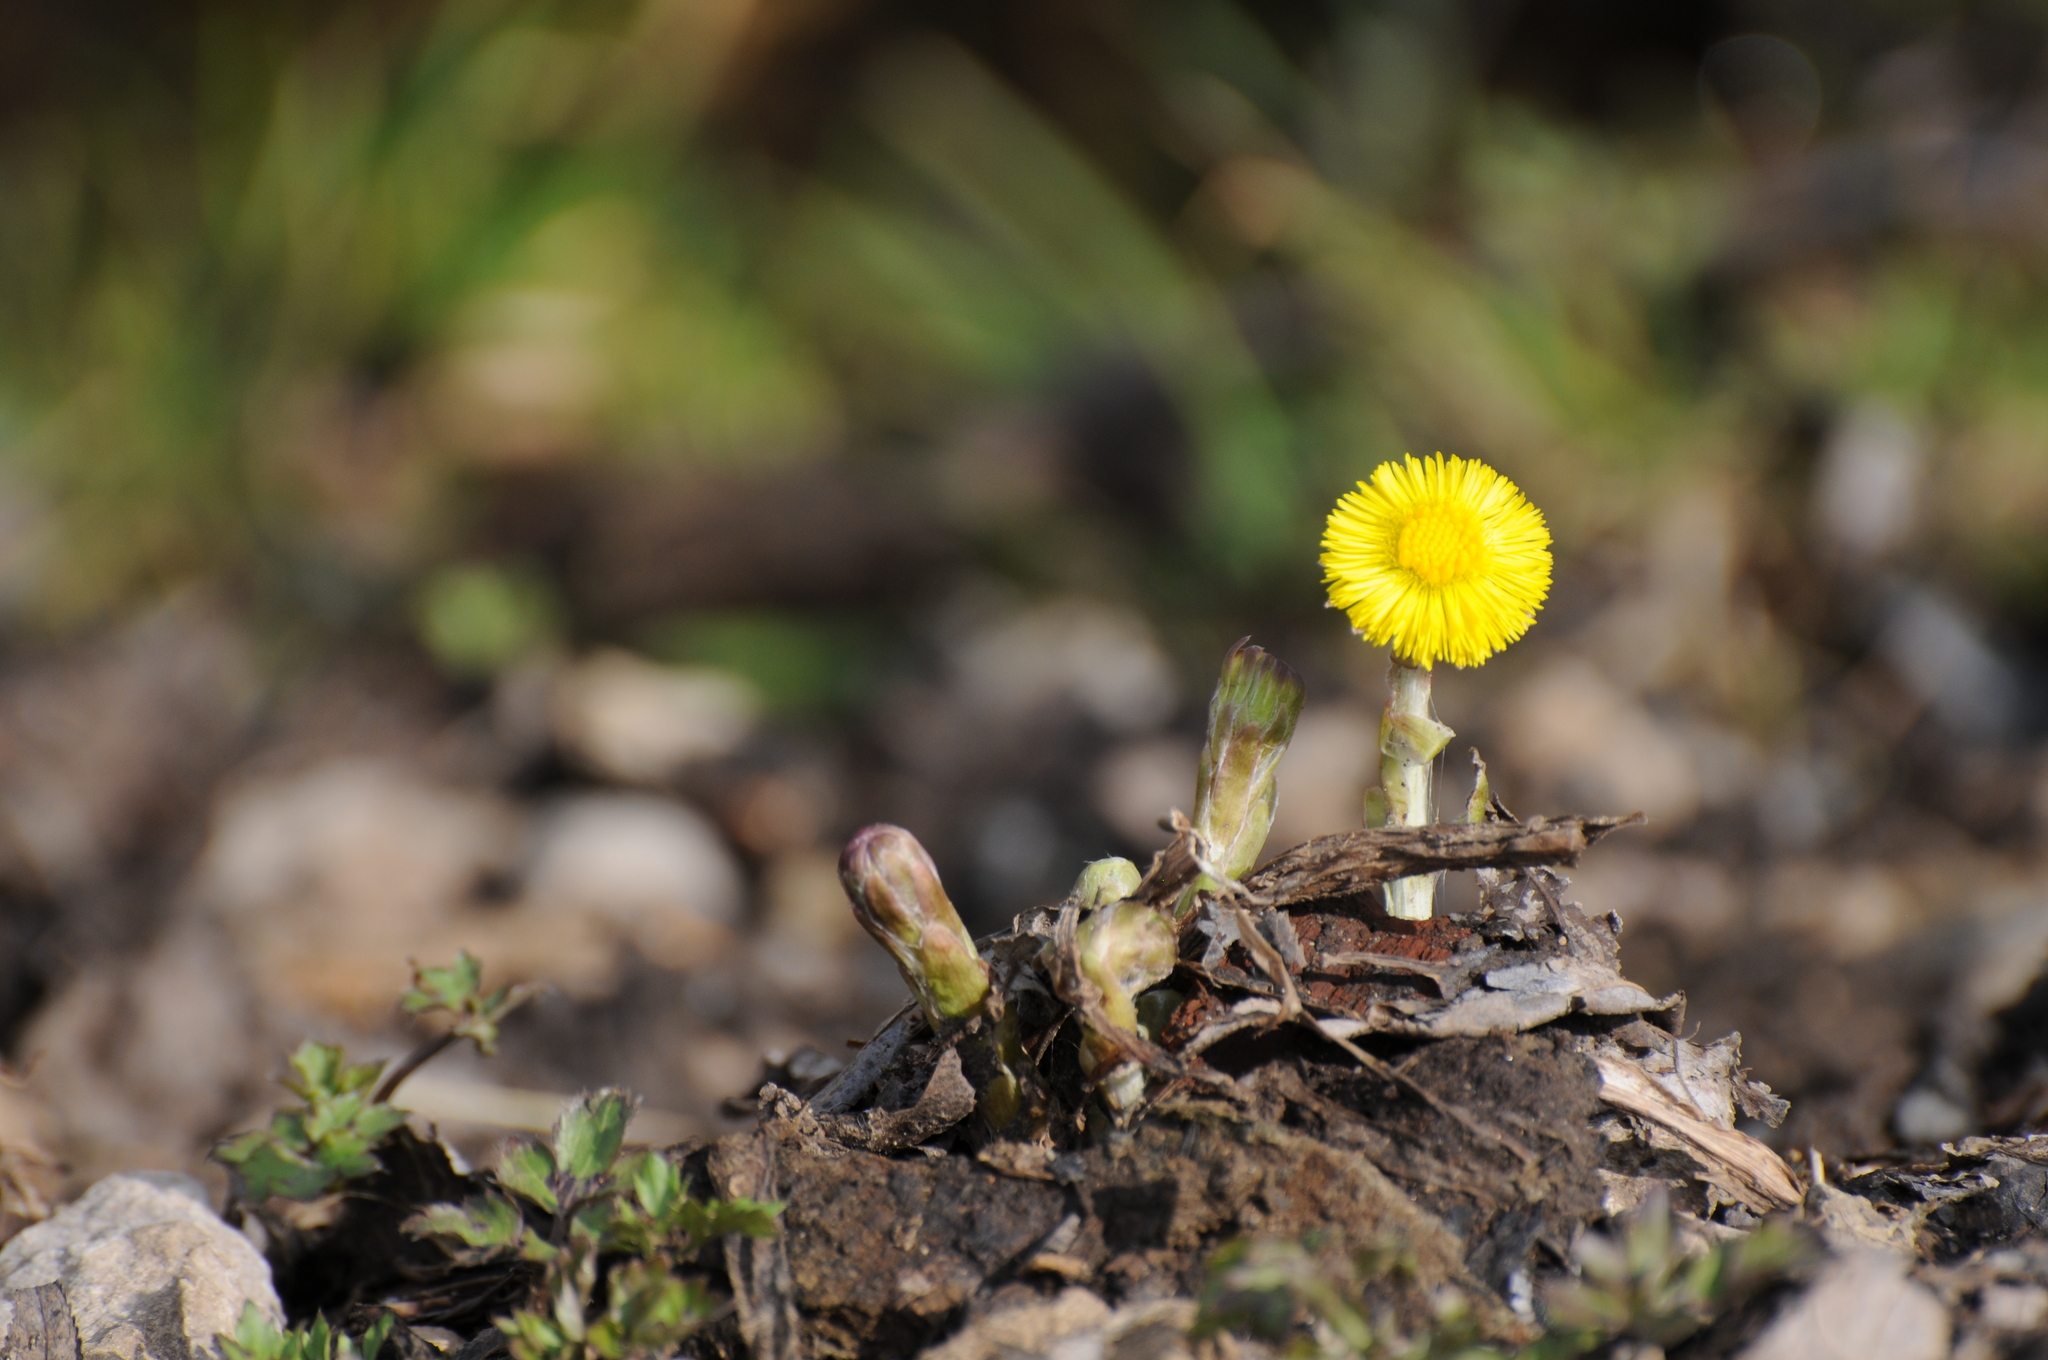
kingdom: Plantae
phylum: Tracheophyta
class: Magnoliopsida
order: Asterales
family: Asteraceae
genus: Tussilago
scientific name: Tussilago farfara
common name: Coltsfoot
